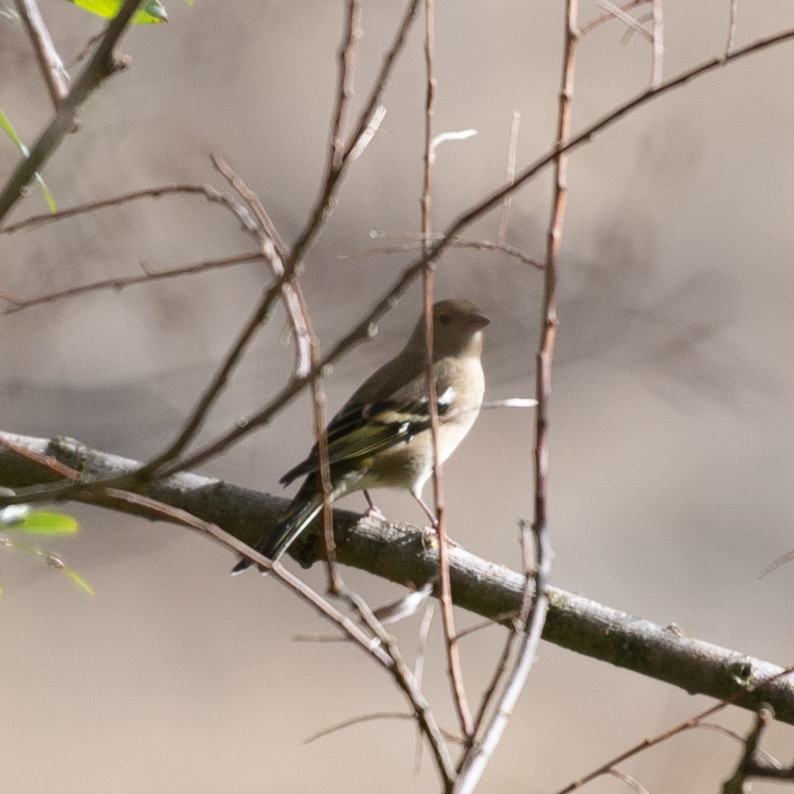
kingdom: Animalia
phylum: Chordata
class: Aves
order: Passeriformes
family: Fringillidae
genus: Fringilla
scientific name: Fringilla coelebs
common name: Common chaffinch
